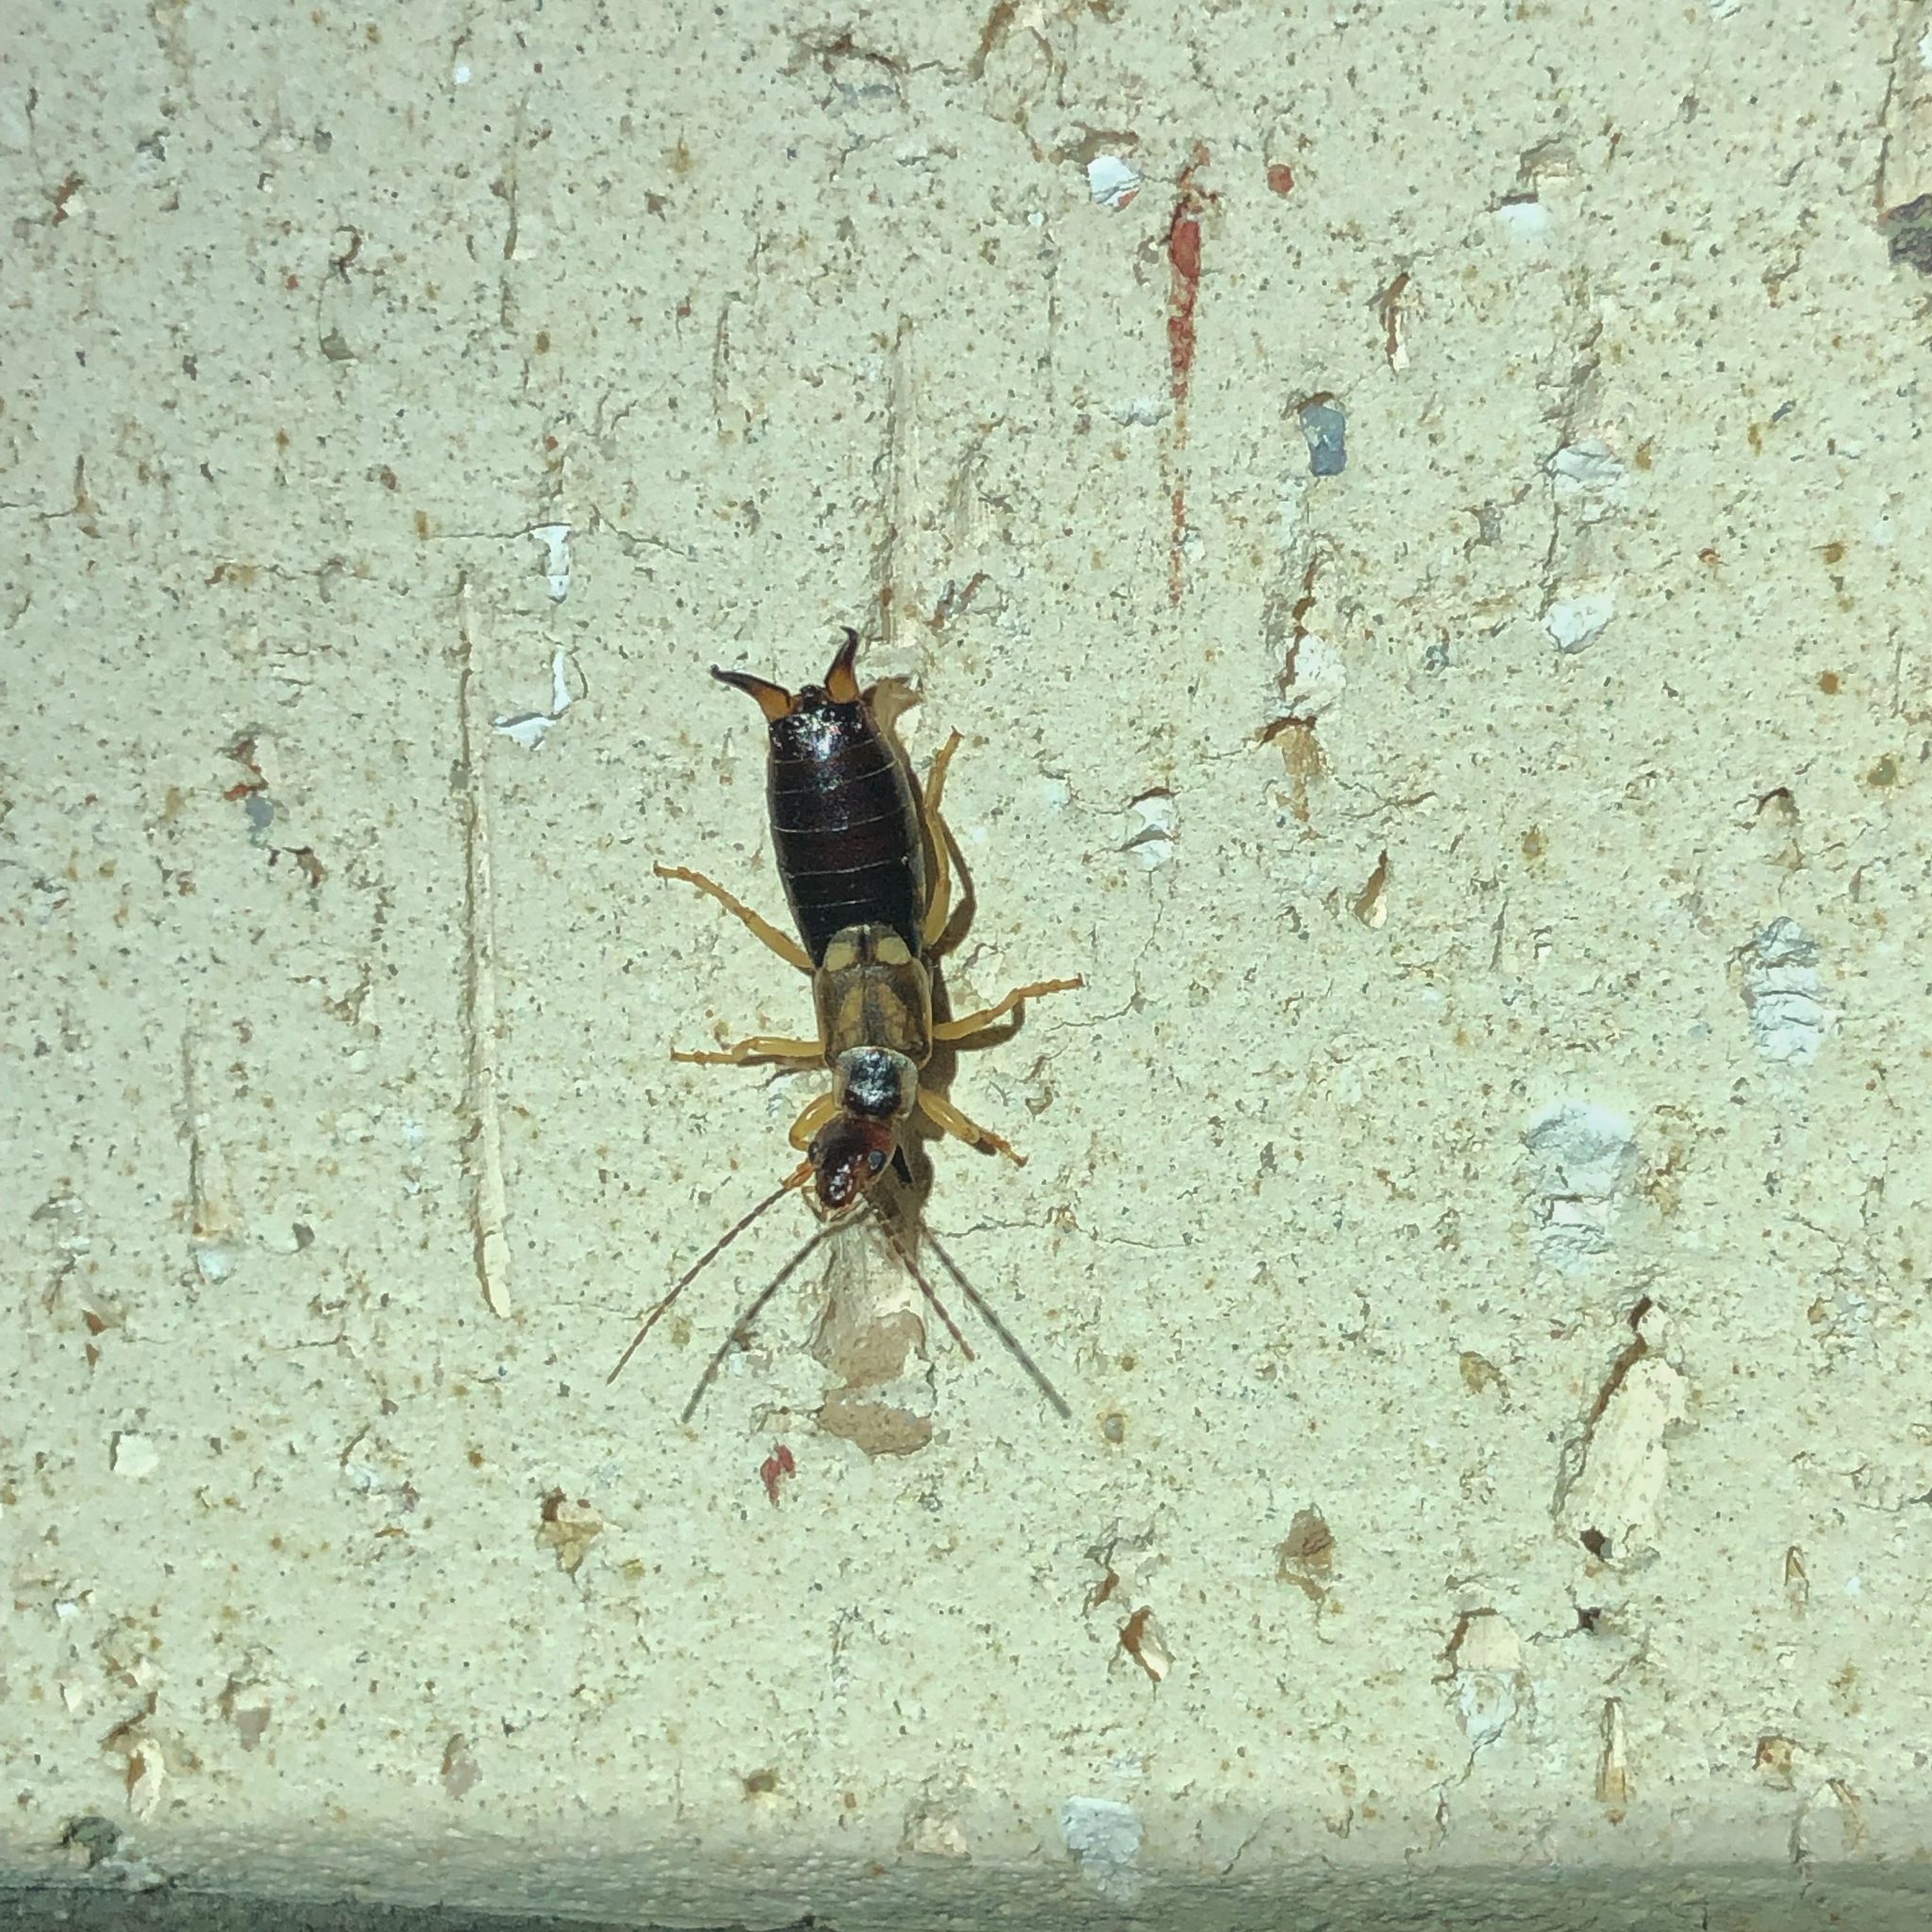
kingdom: Animalia
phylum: Arthropoda
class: Insecta
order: Dermaptera
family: Forficulidae
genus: Forficula
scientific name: Forficula
